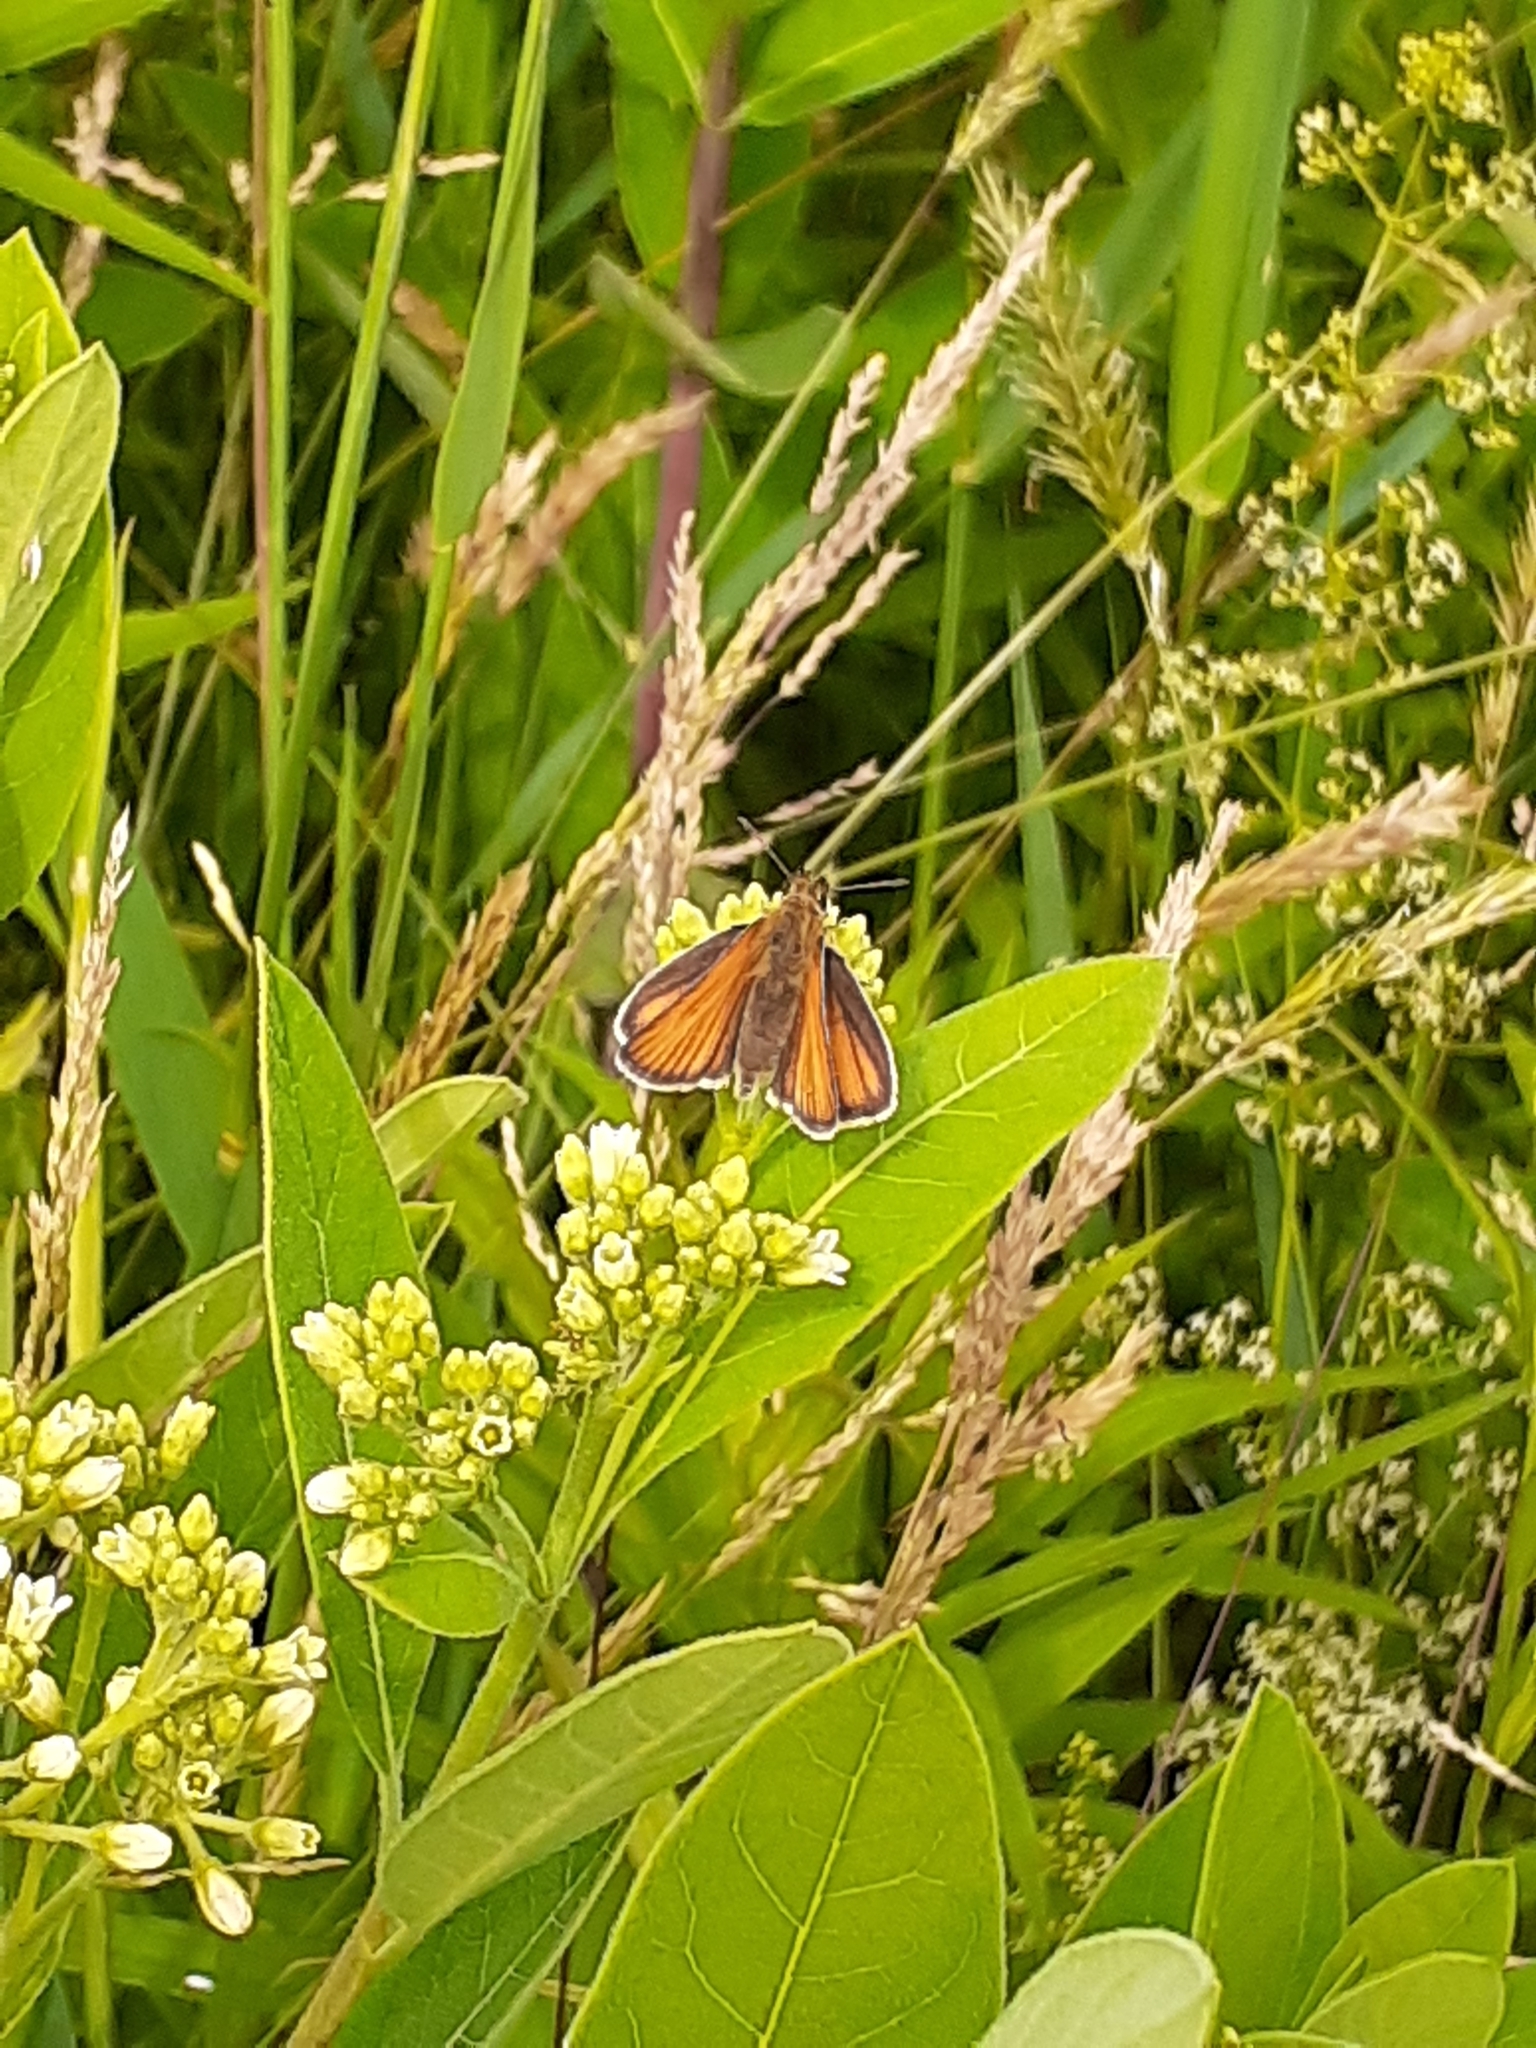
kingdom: Animalia
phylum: Arthropoda
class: Insecta
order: Lepidoptera
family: Hesperiidae
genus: Thymelicus
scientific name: Thymelicus lineola
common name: Essex skipper
